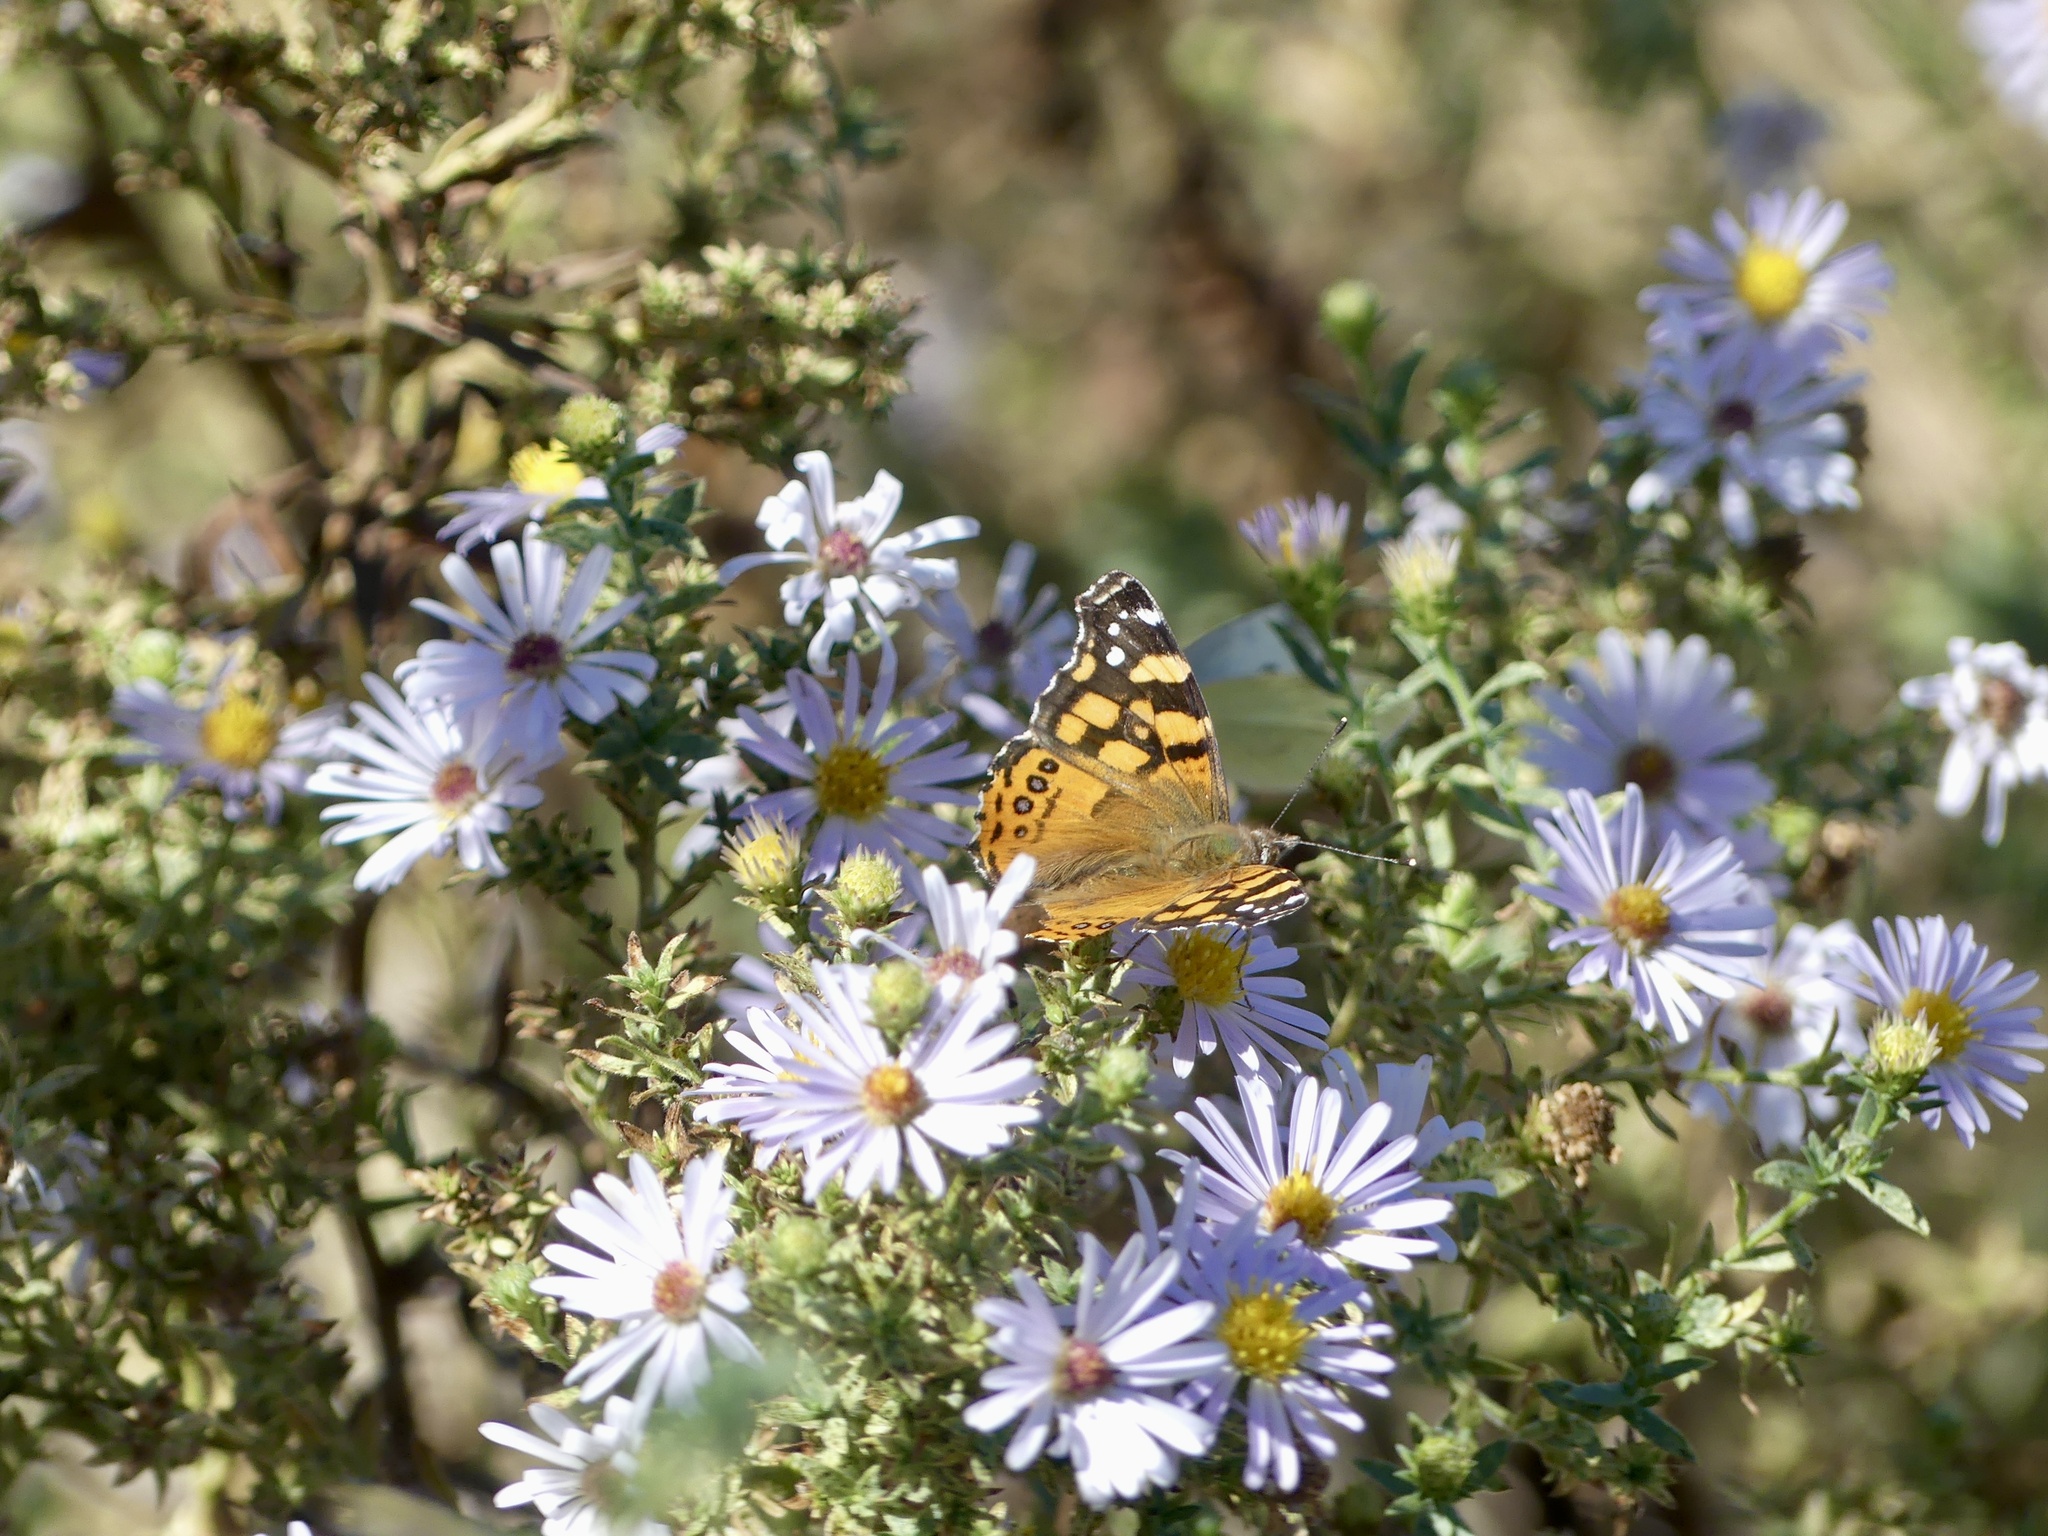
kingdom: Animalia
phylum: Arthropoda
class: Insecta
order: Lepidoptera
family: Nymphalidae
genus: Vanessa
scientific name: Vanessa annabella
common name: West coast lady
